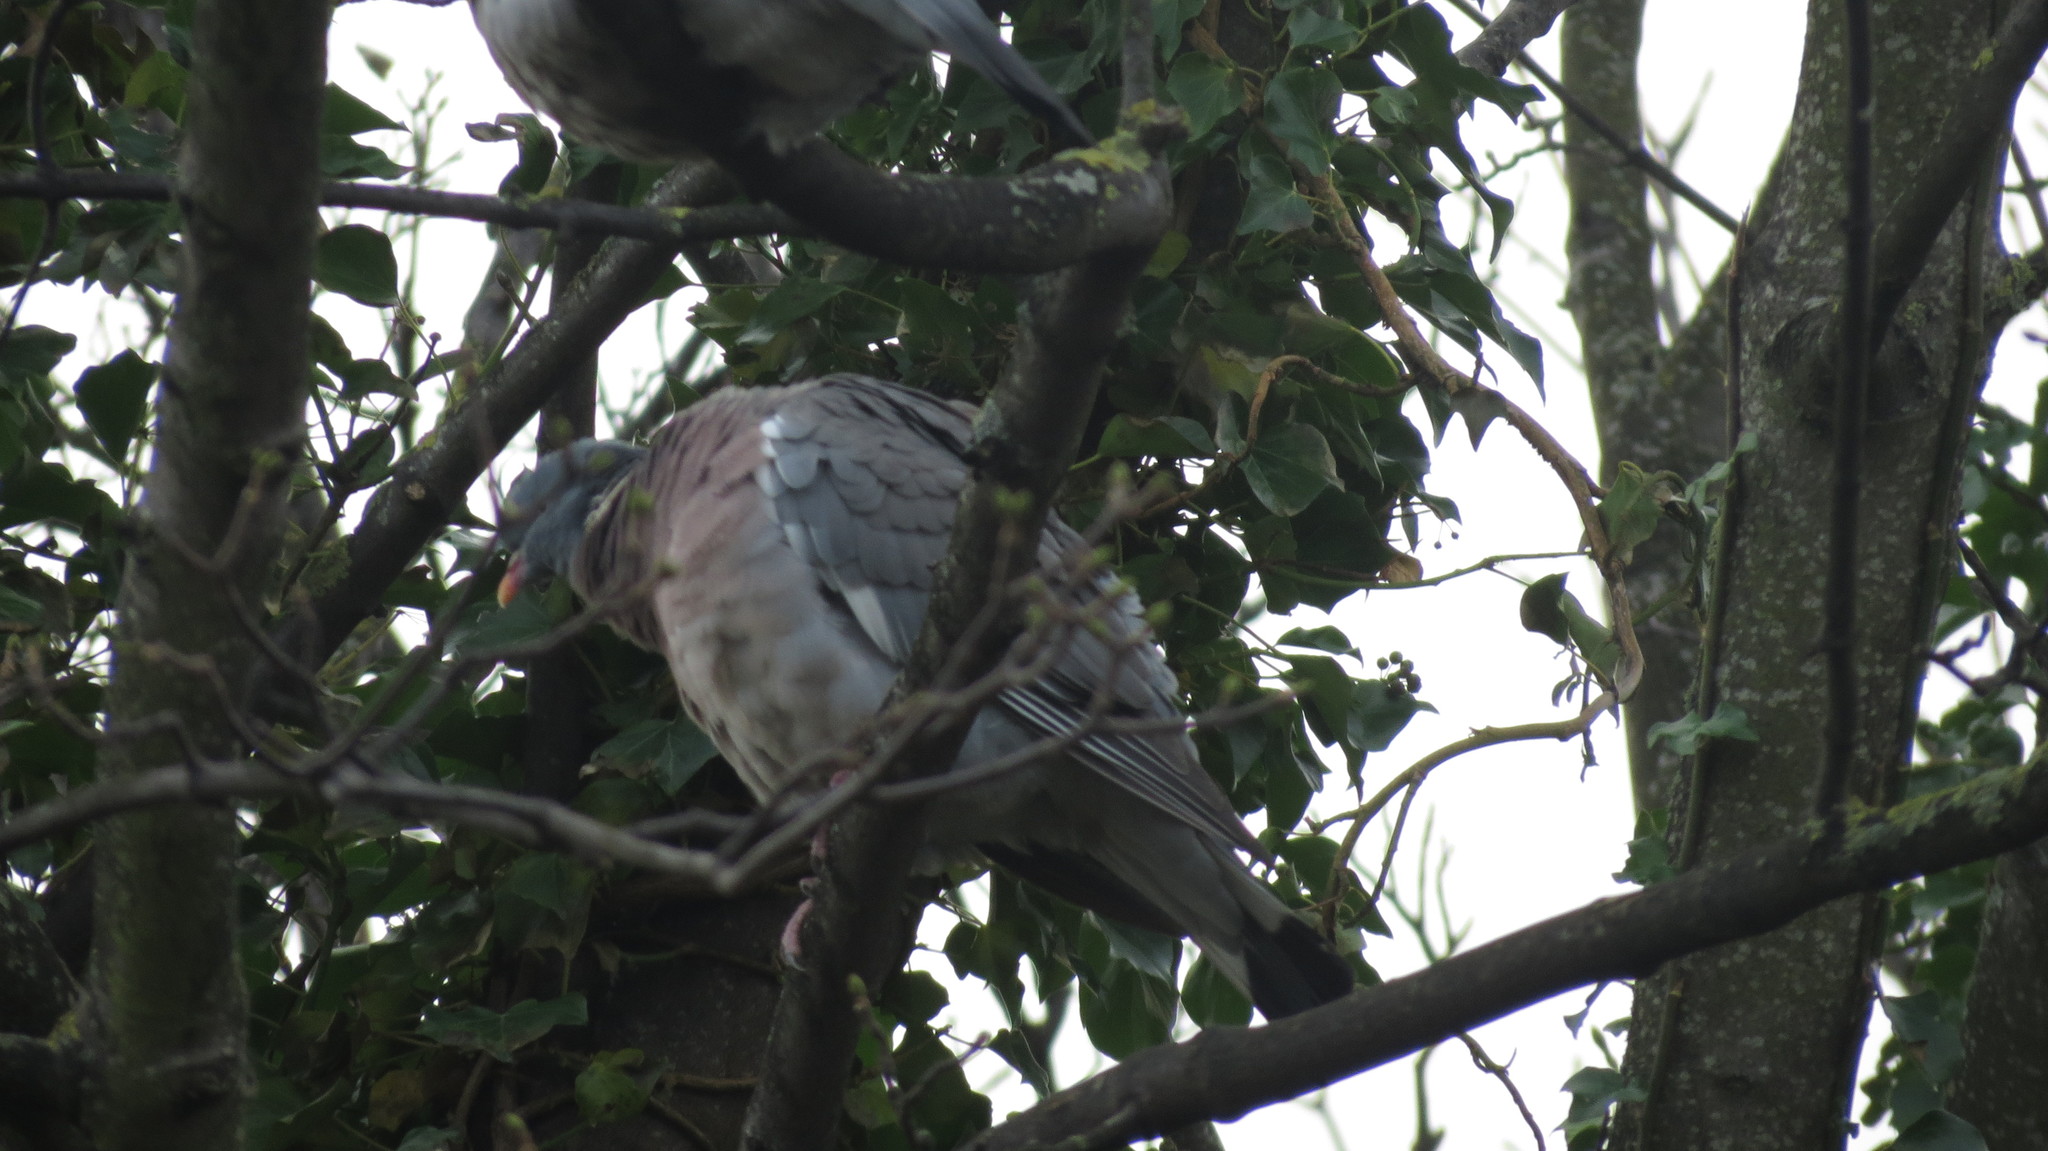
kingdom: Animalia
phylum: Chordata
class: Aves
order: Columbiformes
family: Columbidae
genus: Columba
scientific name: Columba palumbus
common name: Common wood pigeon
